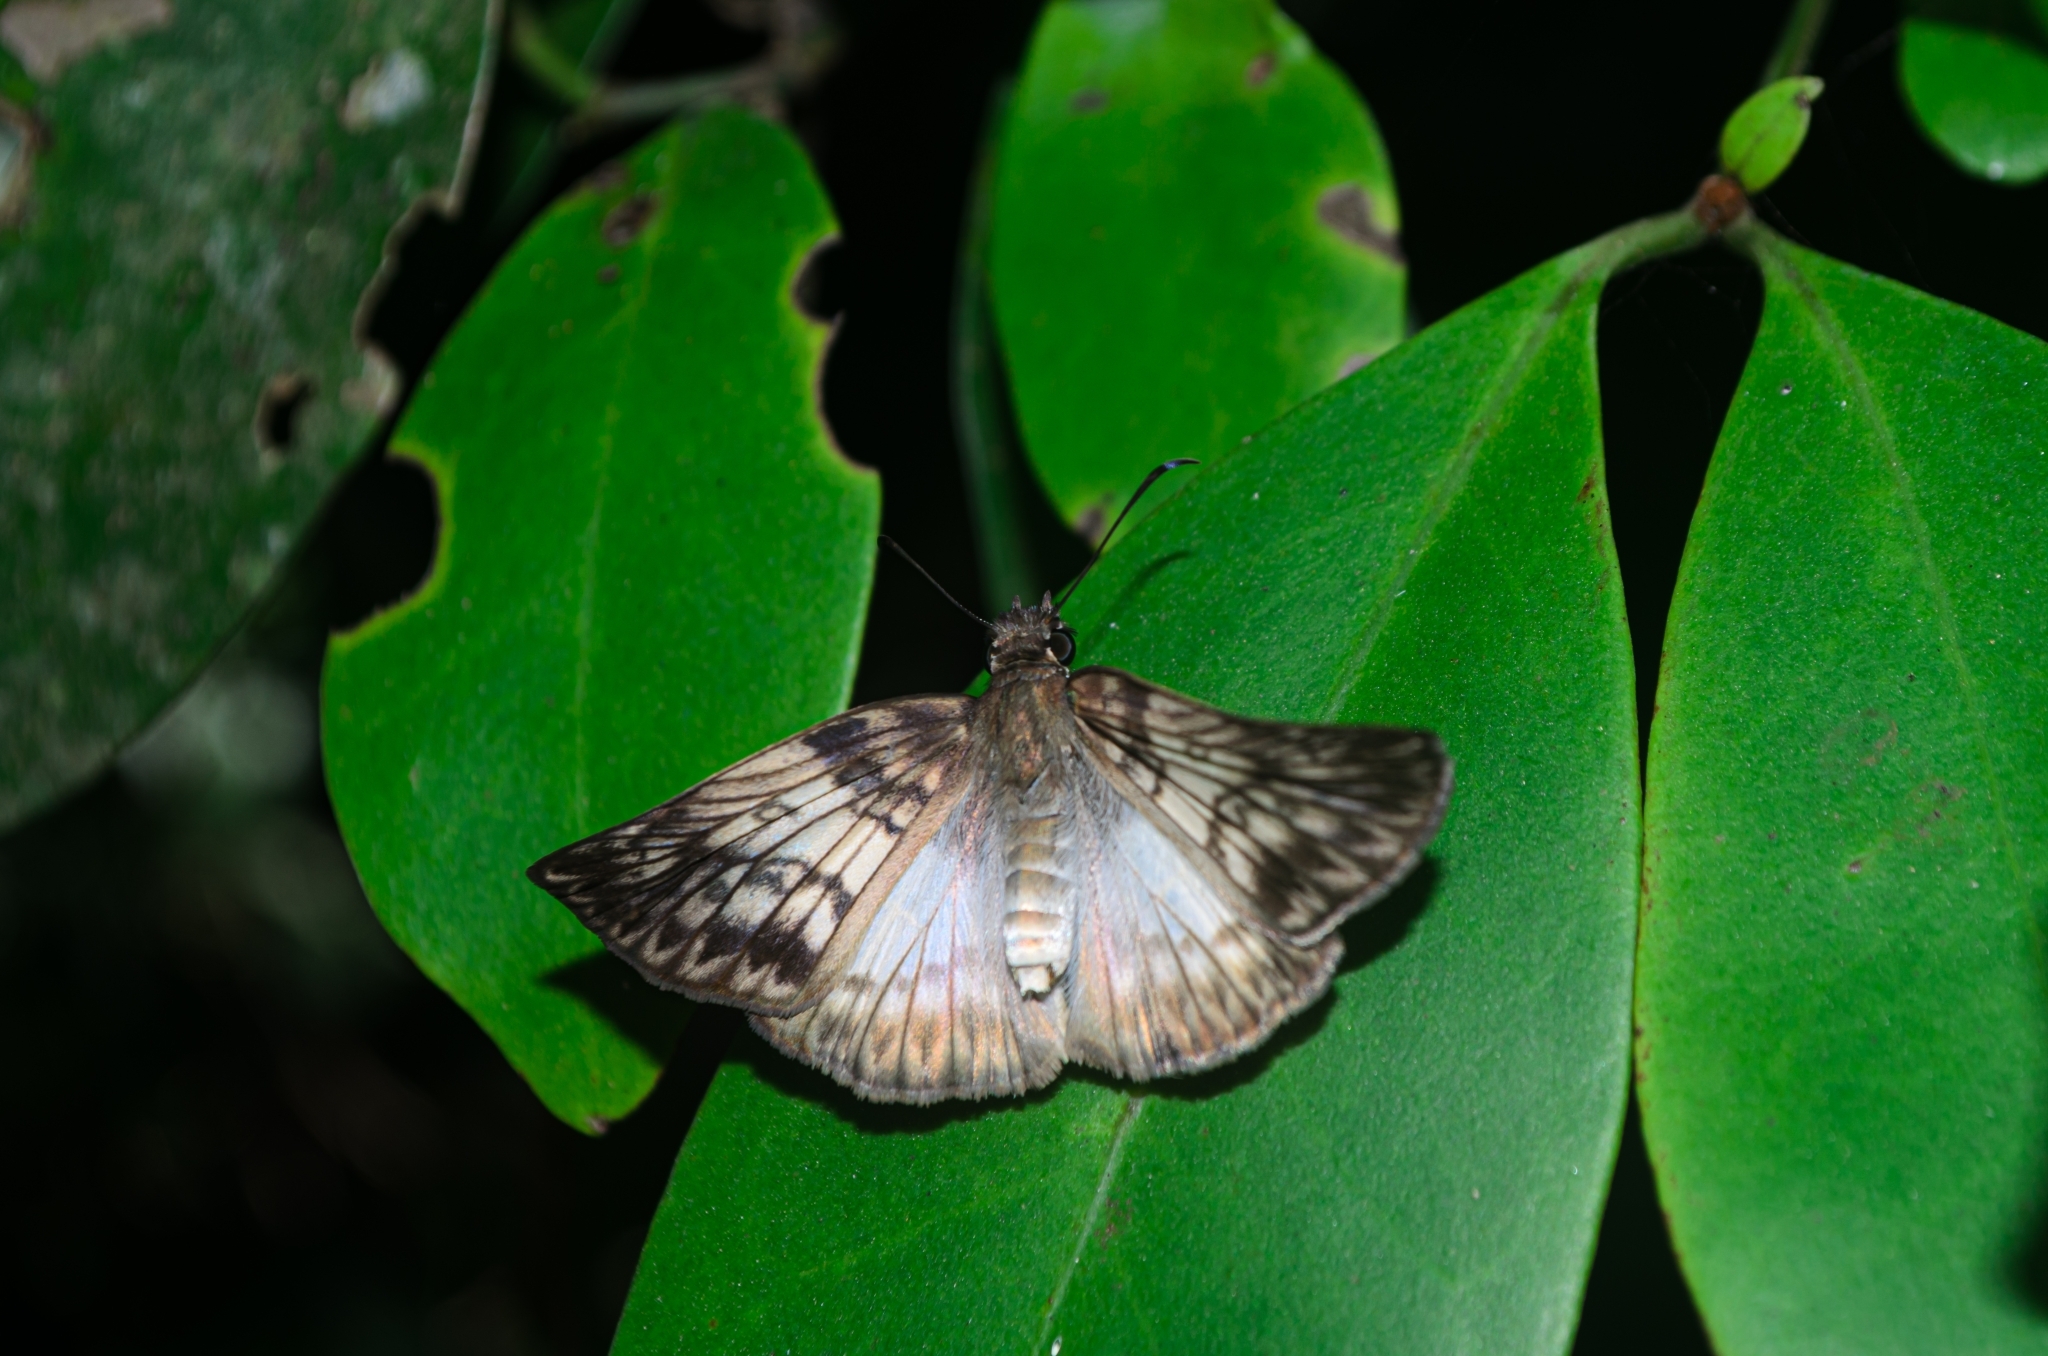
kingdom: Animalia
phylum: Arthropoda
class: Insecta
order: Lepidoptera
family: Hesperiidae
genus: Mylon
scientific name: Mylon maimon
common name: Common mylon
